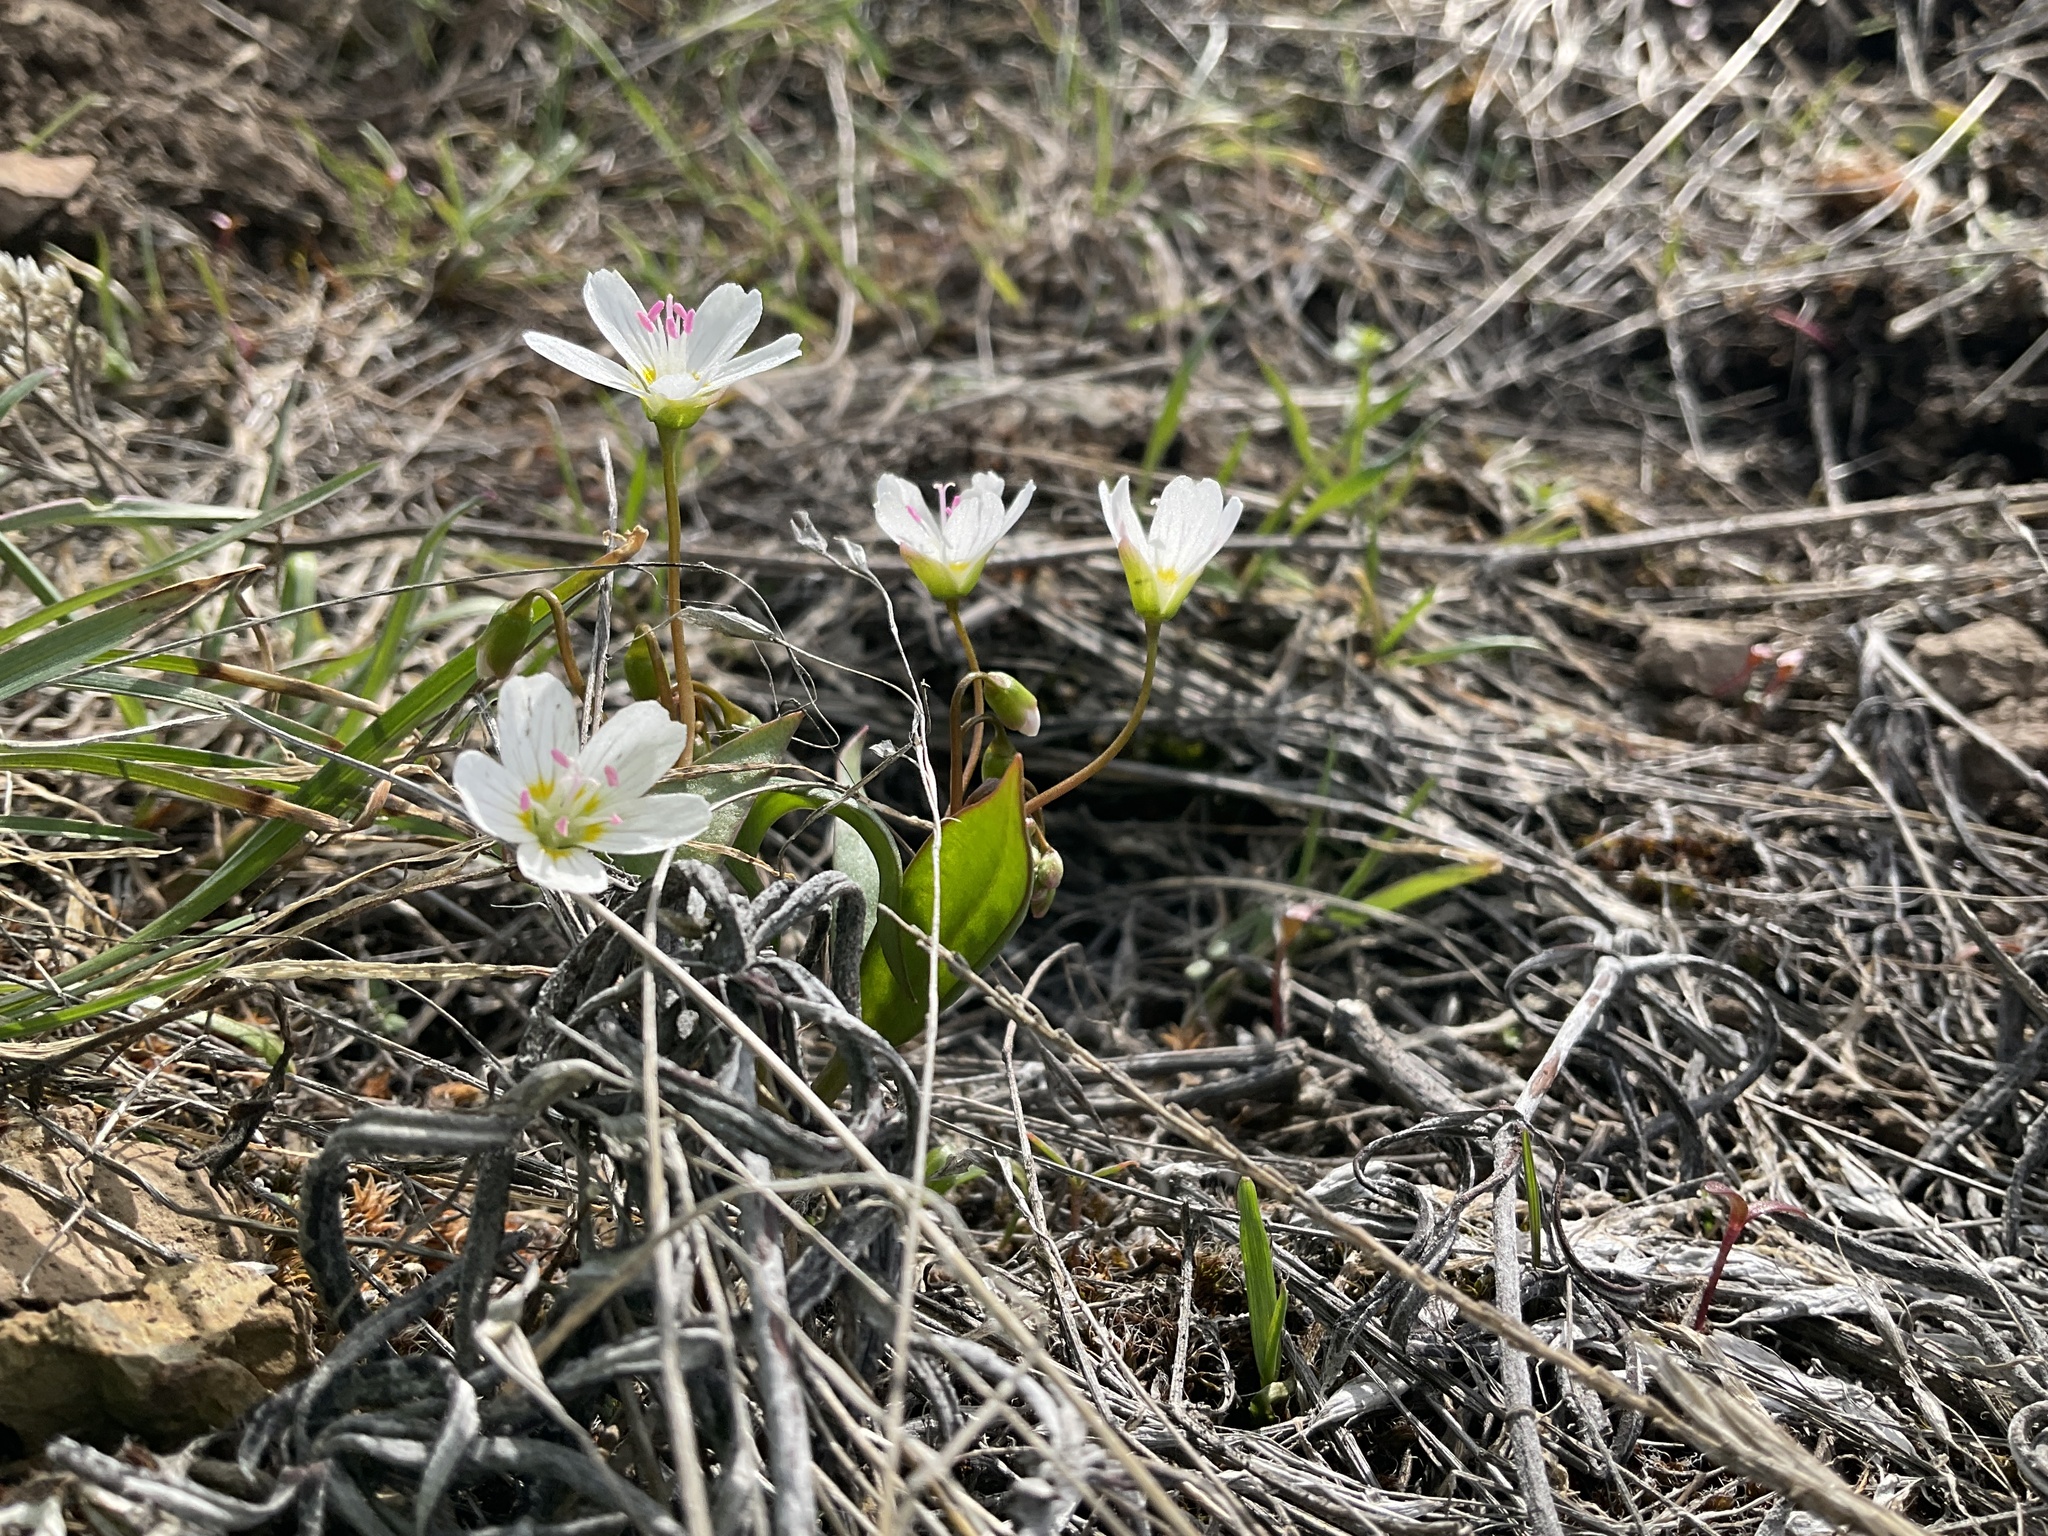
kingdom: Plantae
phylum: Tracheophyta
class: Magnoliopsida
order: Caryophyllales
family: Montiaceae
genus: Claytonia
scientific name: Claytonia lanceolata
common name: Western spring-beauty
